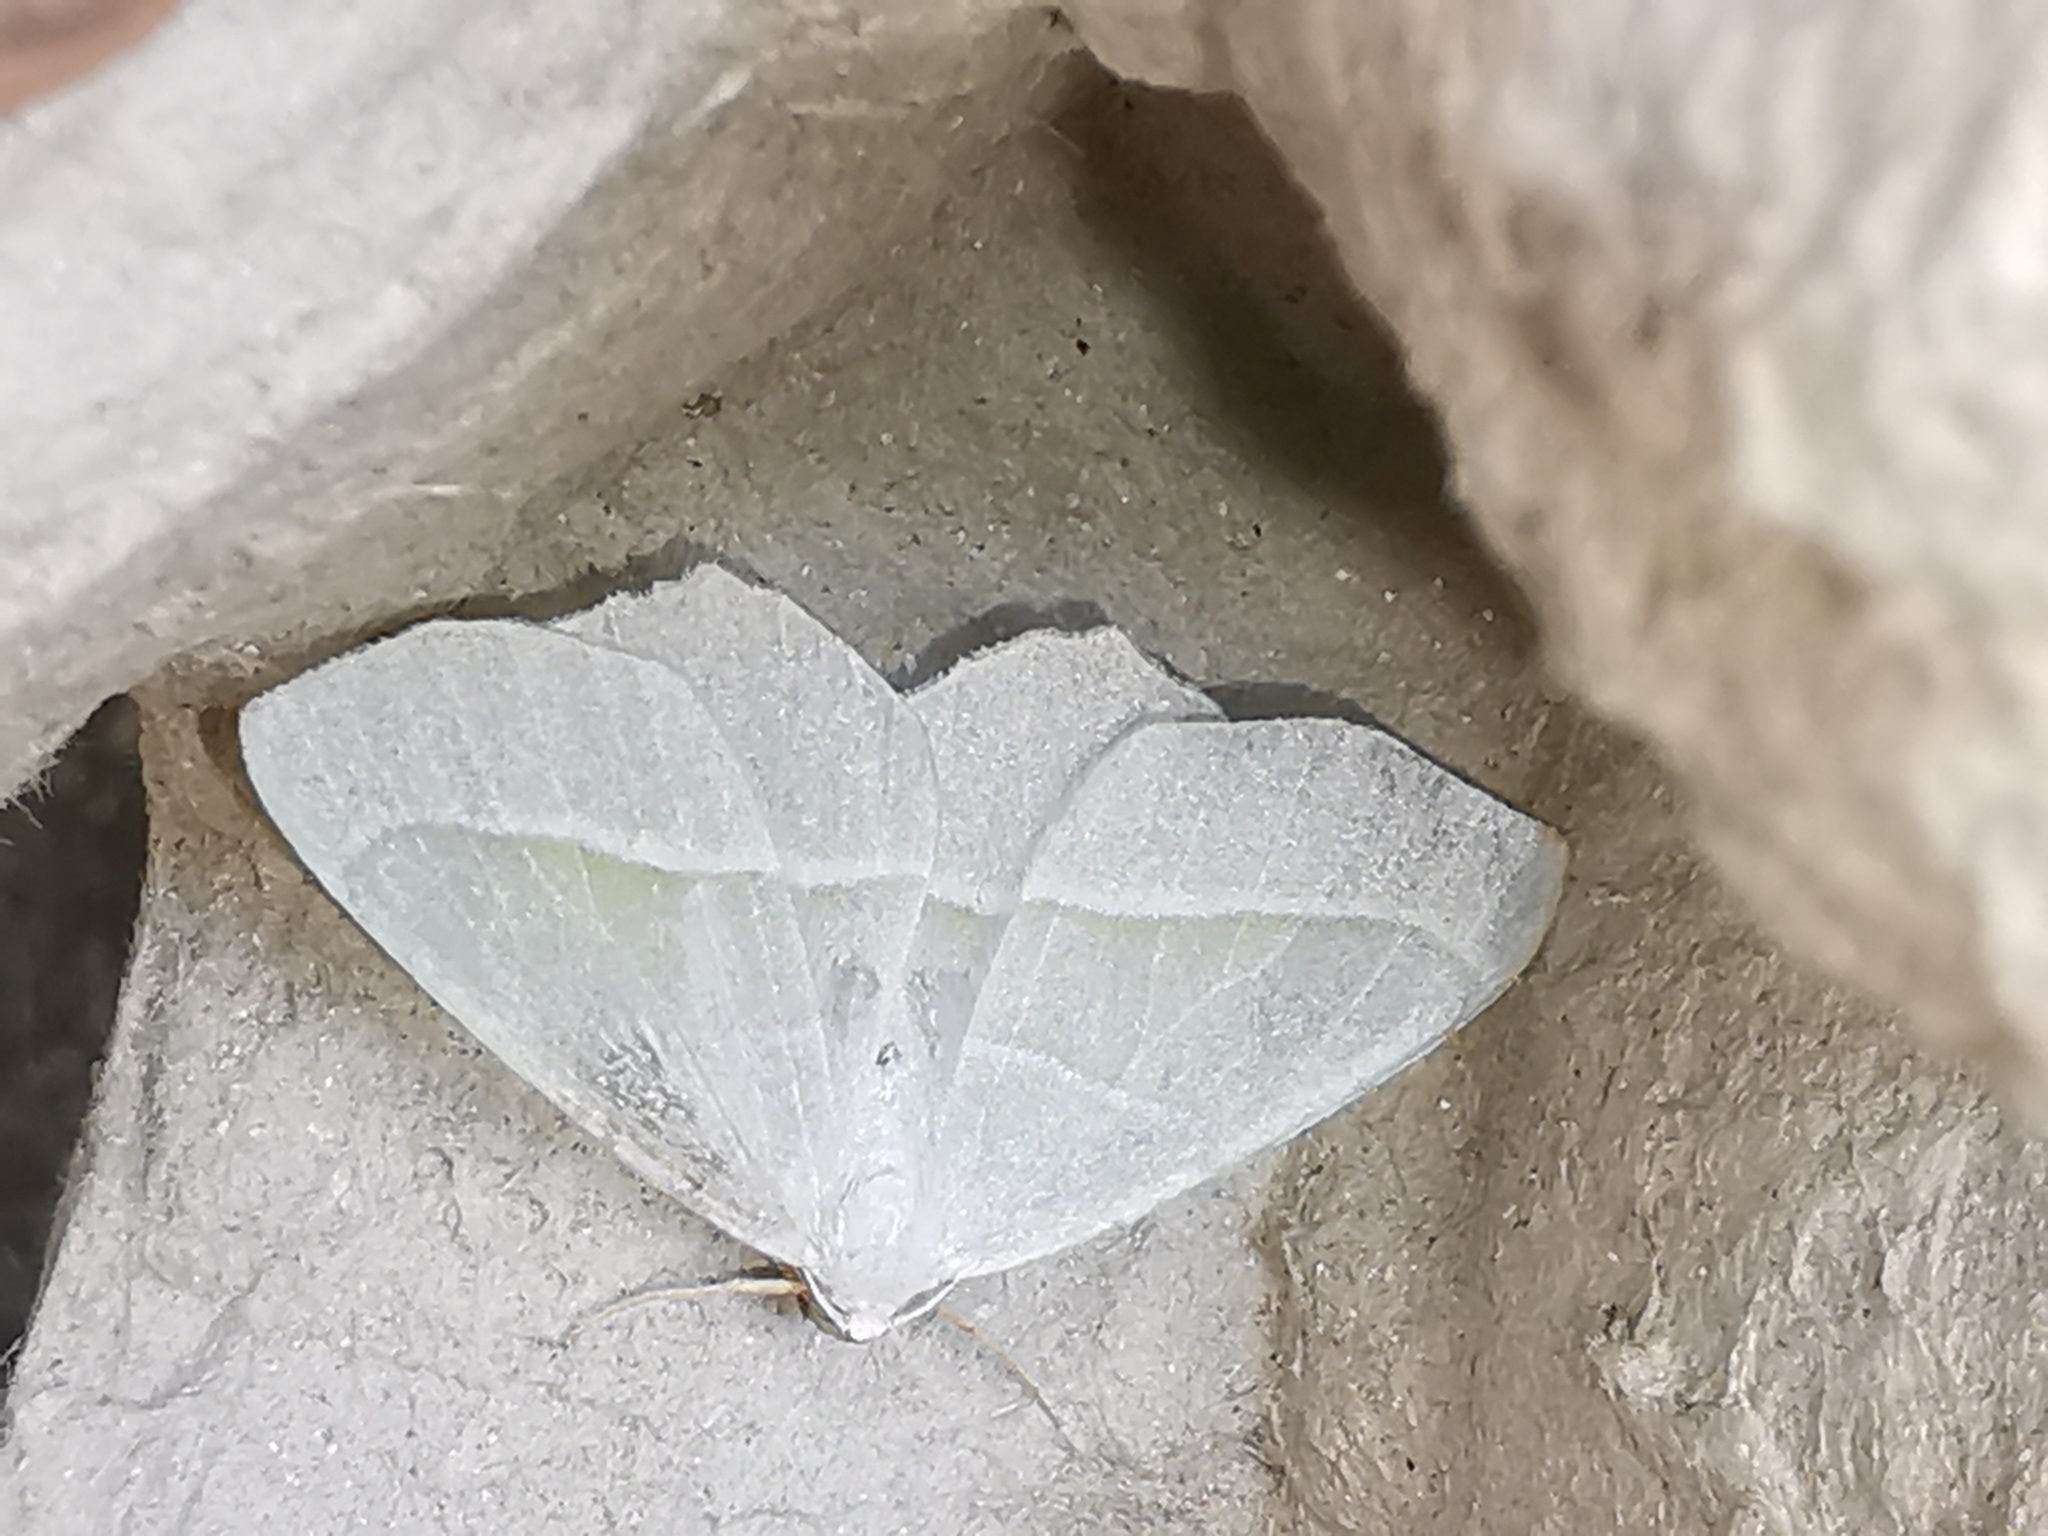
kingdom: Animalia
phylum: Arthropoda
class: Insecta
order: Lepidoptera
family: Geometridae
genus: Campaea
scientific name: Campaea margaritaria
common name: Light emerald
